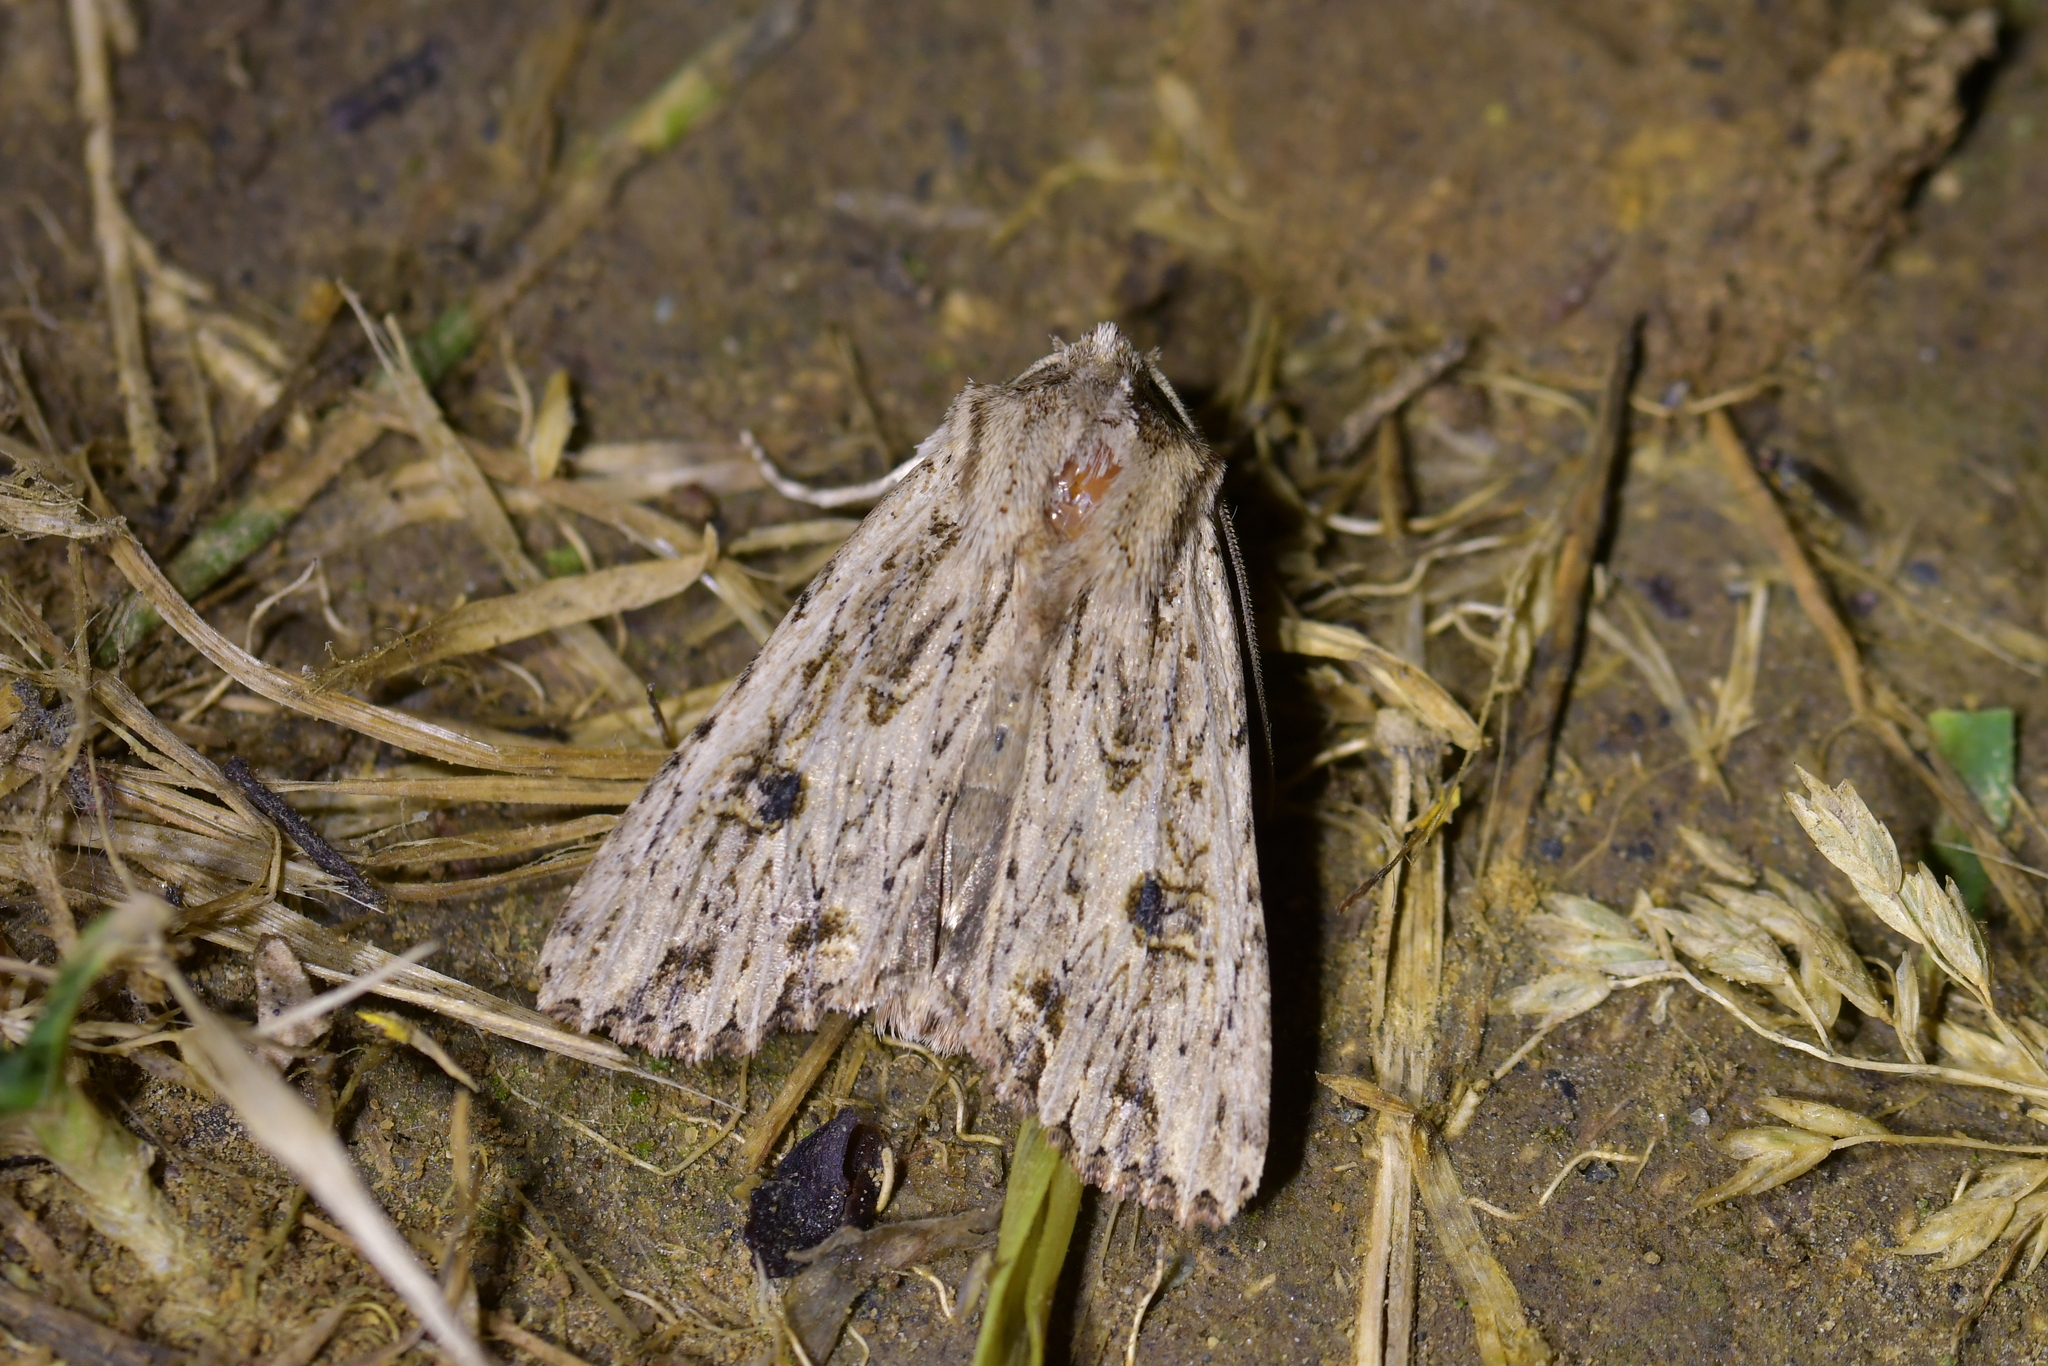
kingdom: Animalia
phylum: Arthropoda
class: Insecta
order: Lepidoptera
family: Noctuidae
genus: Ichneutica
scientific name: Ichneutica lignana
